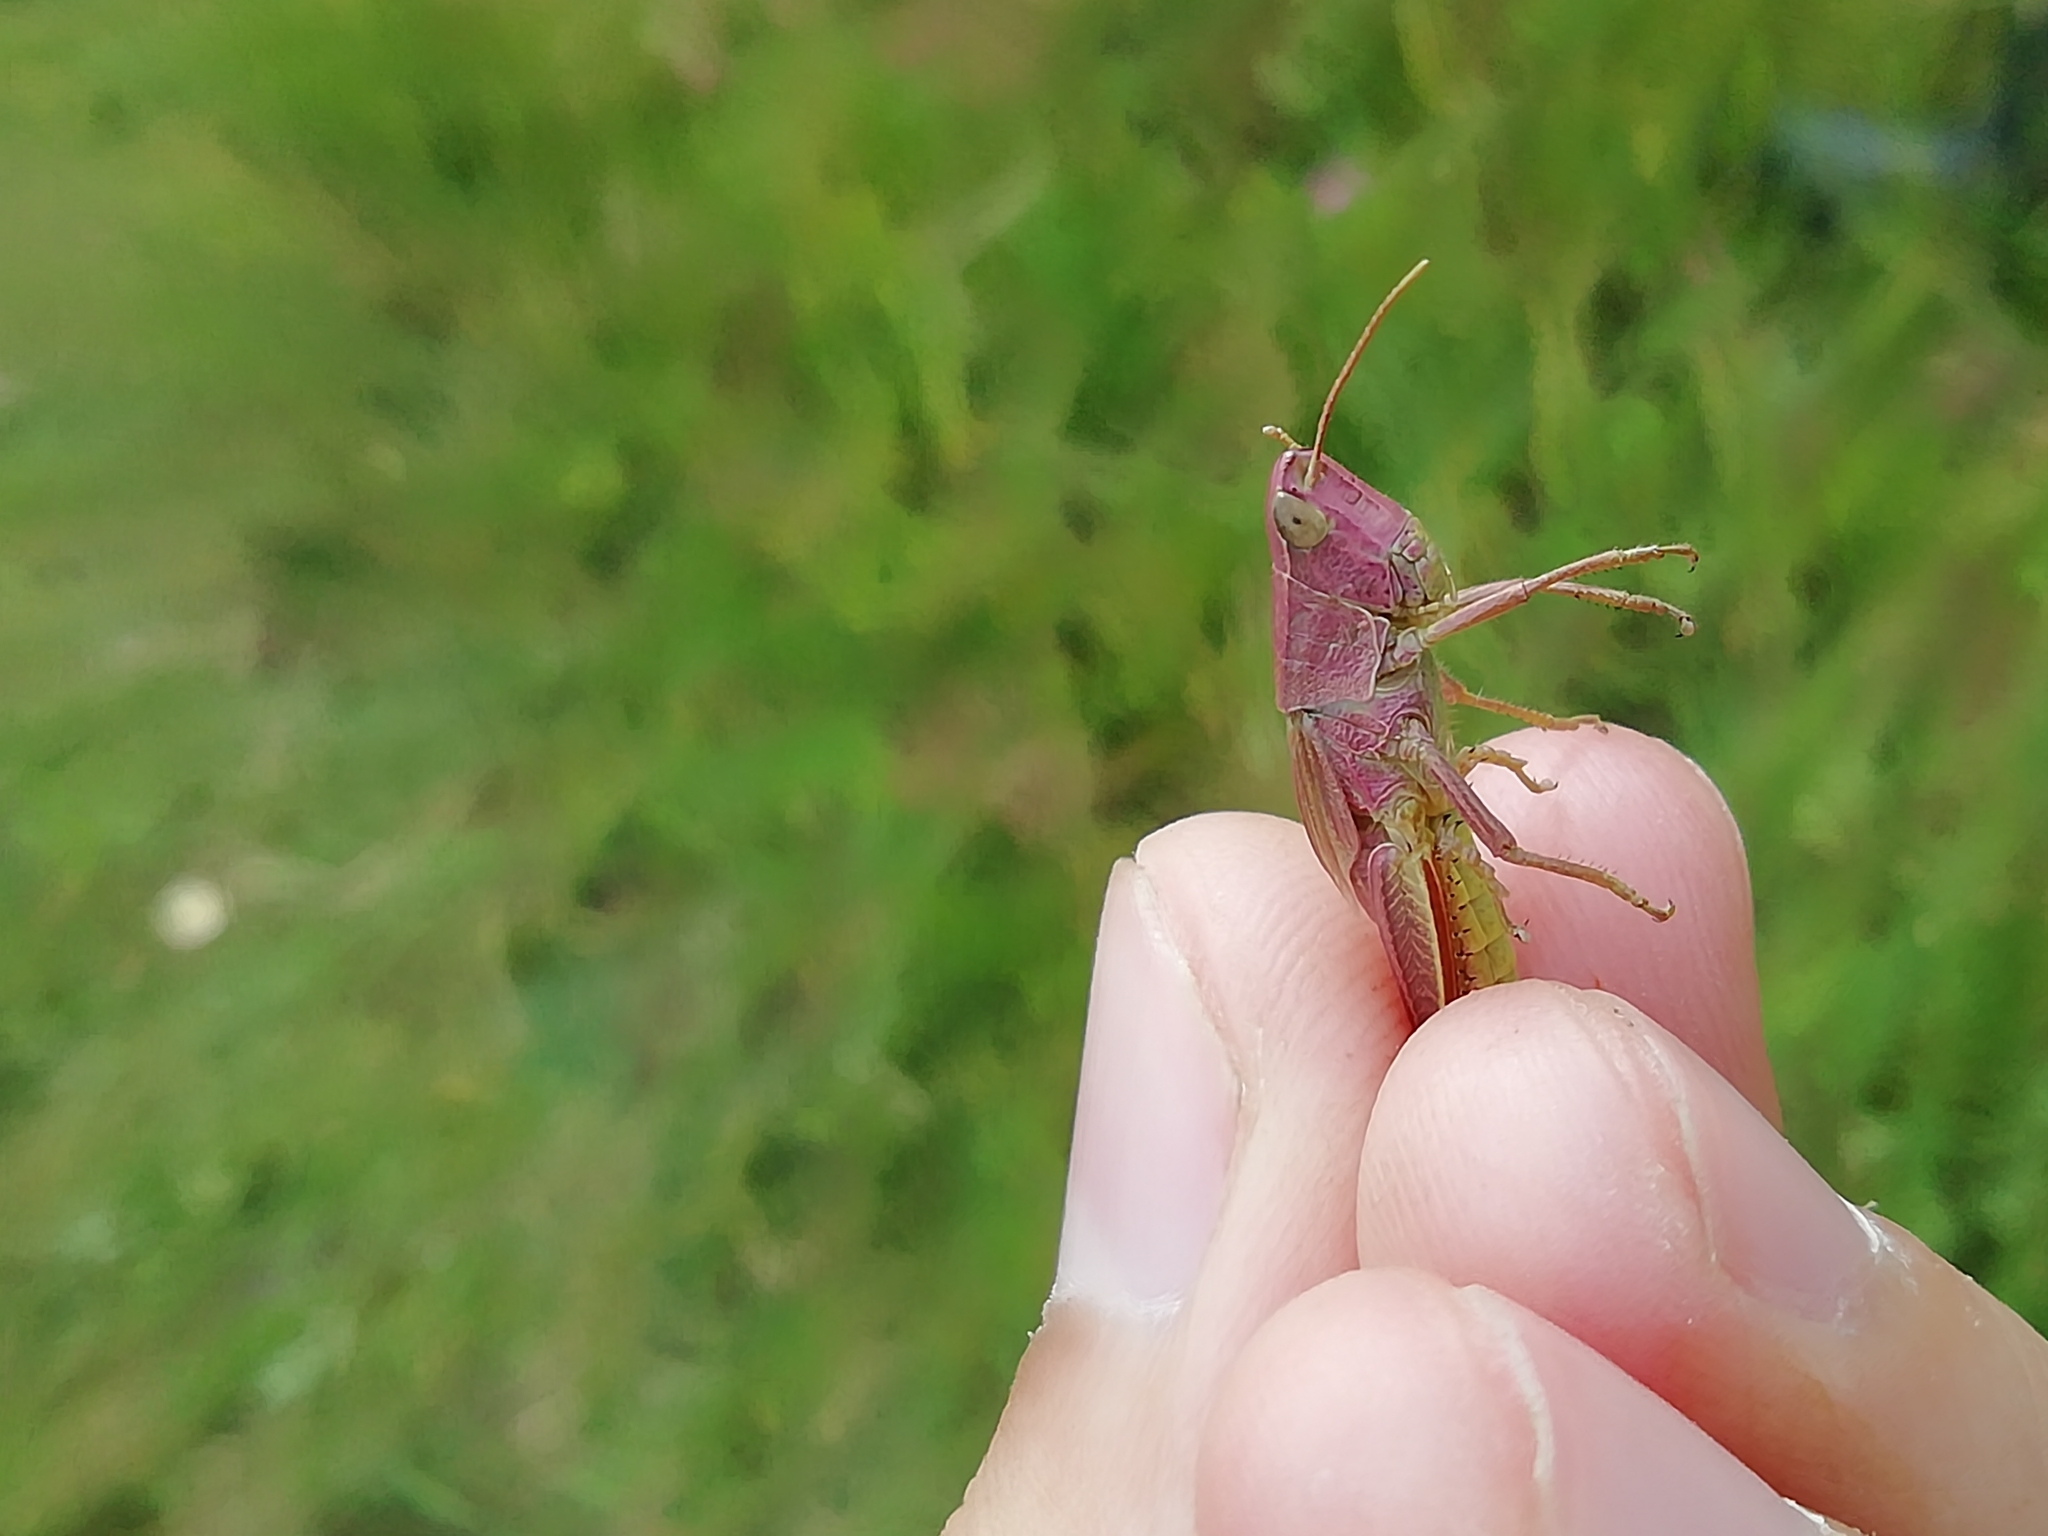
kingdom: Animalia
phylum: Arthropoda
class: Insecta
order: Orthoptera
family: Acrididae
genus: Chrysochraon
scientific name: Chrysochraon dispar
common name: Large gold grasshopper
